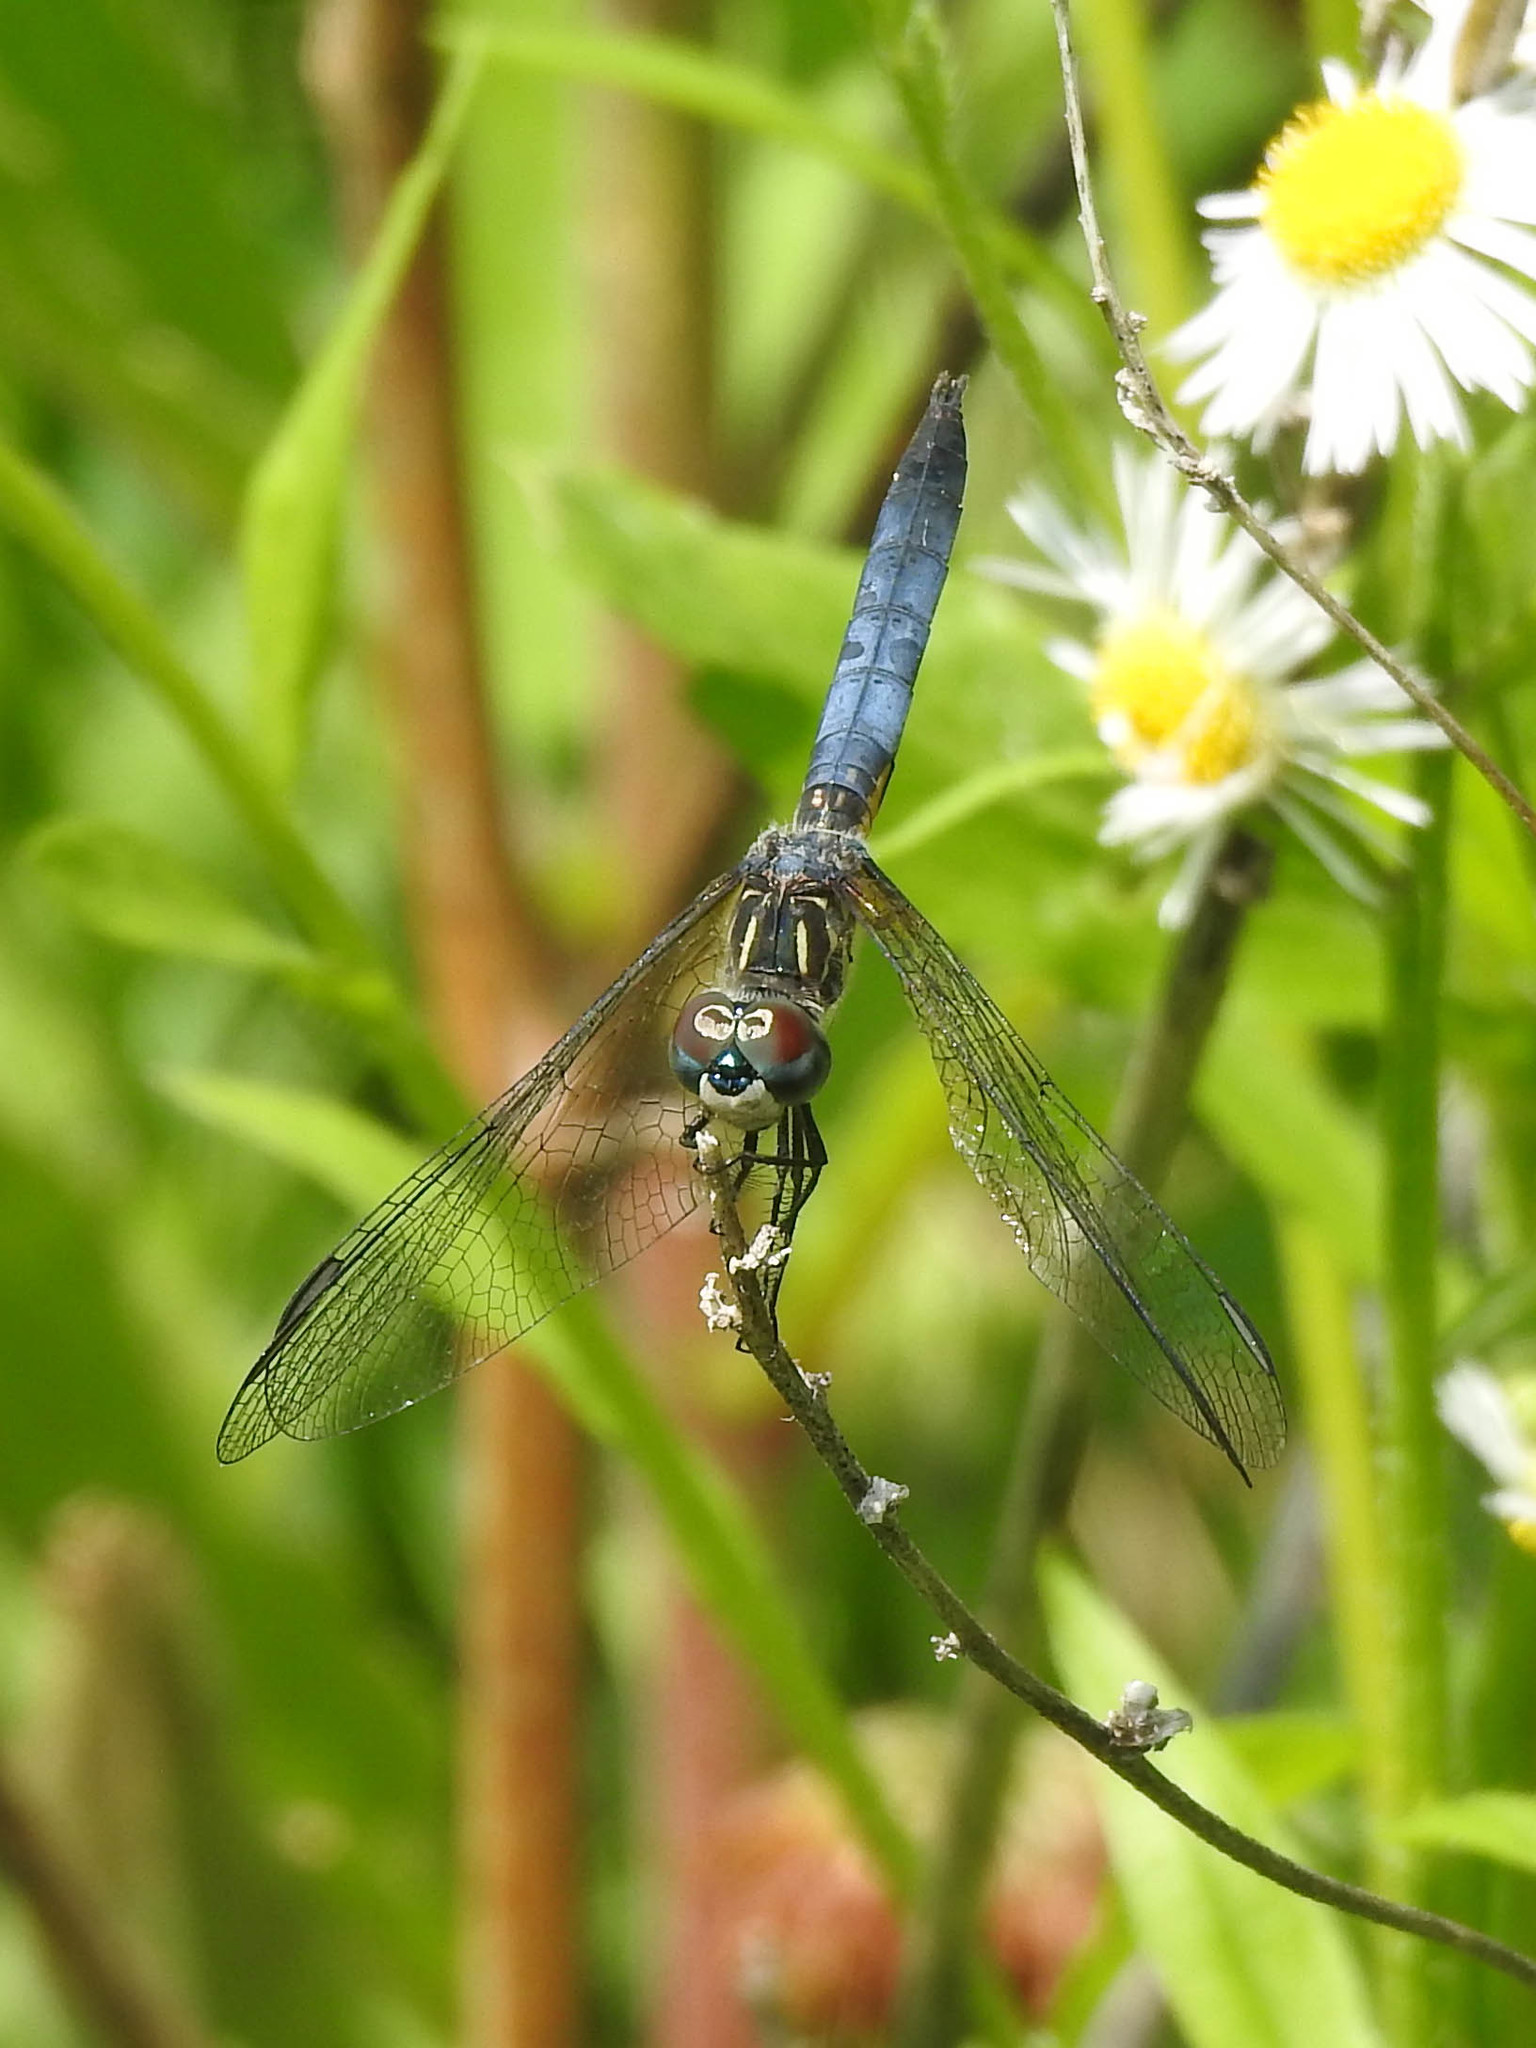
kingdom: Animalia
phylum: Arthropoda
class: Insecta
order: Odonata
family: Libellulidae
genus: Pachydiplax
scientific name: Pachydiplax longipennis
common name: Blue dasher
